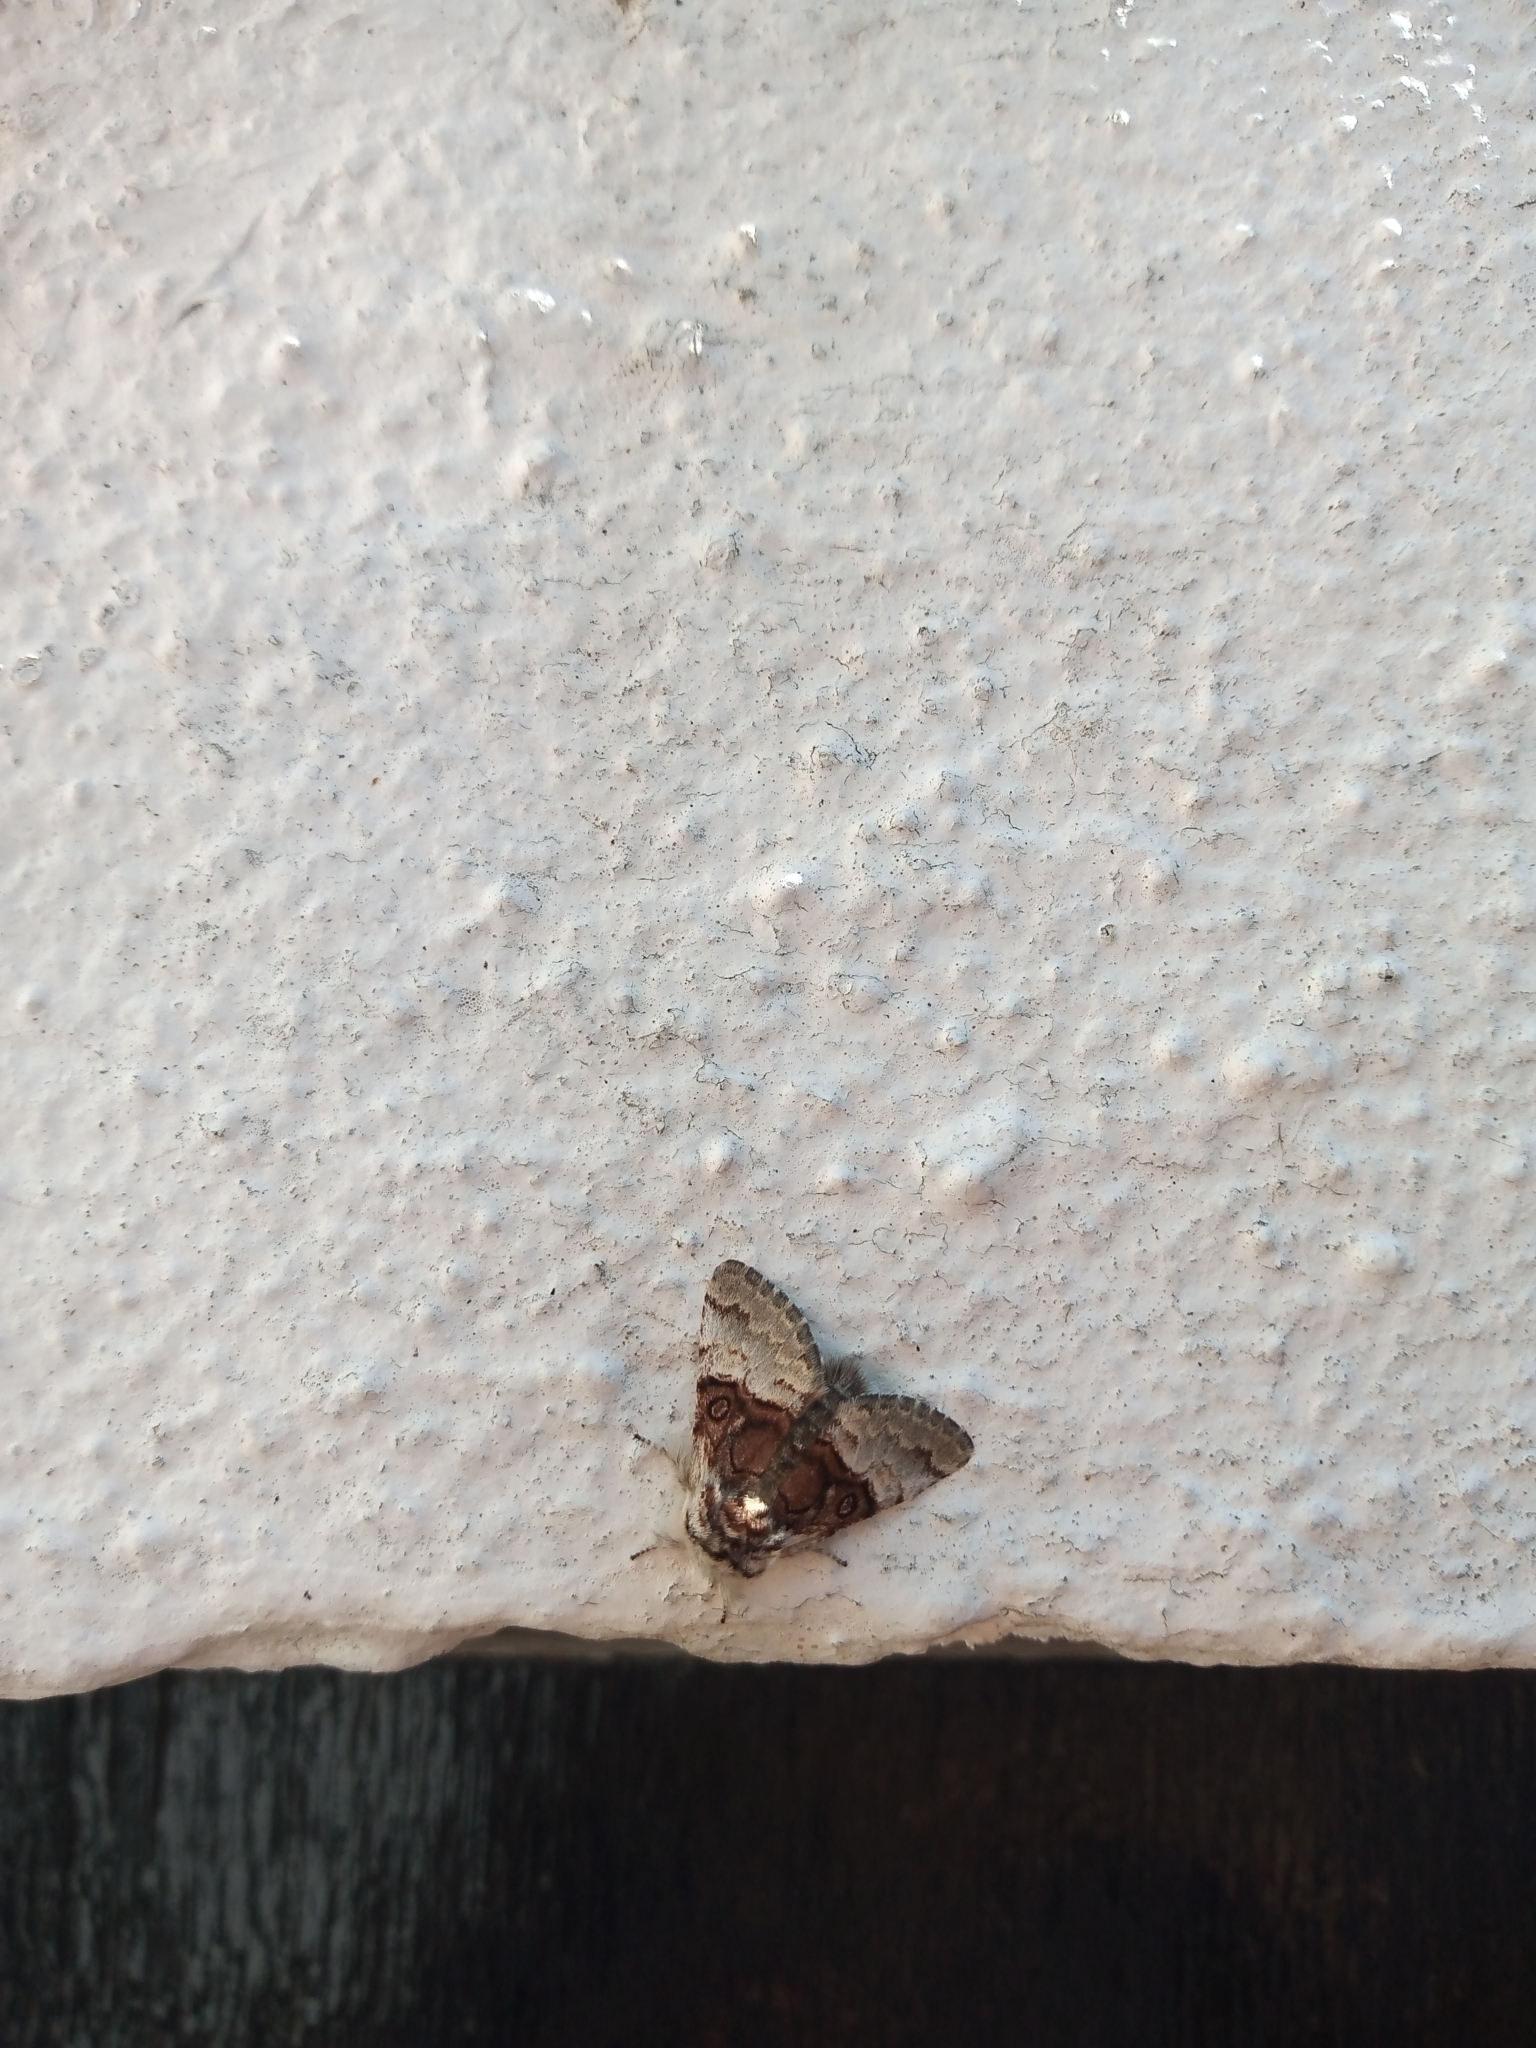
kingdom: Animalia
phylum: Arthropoda
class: Insecta
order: Lepidoptera
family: Noctuidae
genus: Colocasia
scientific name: Colocasia coryli
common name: Nut-tree tussock
